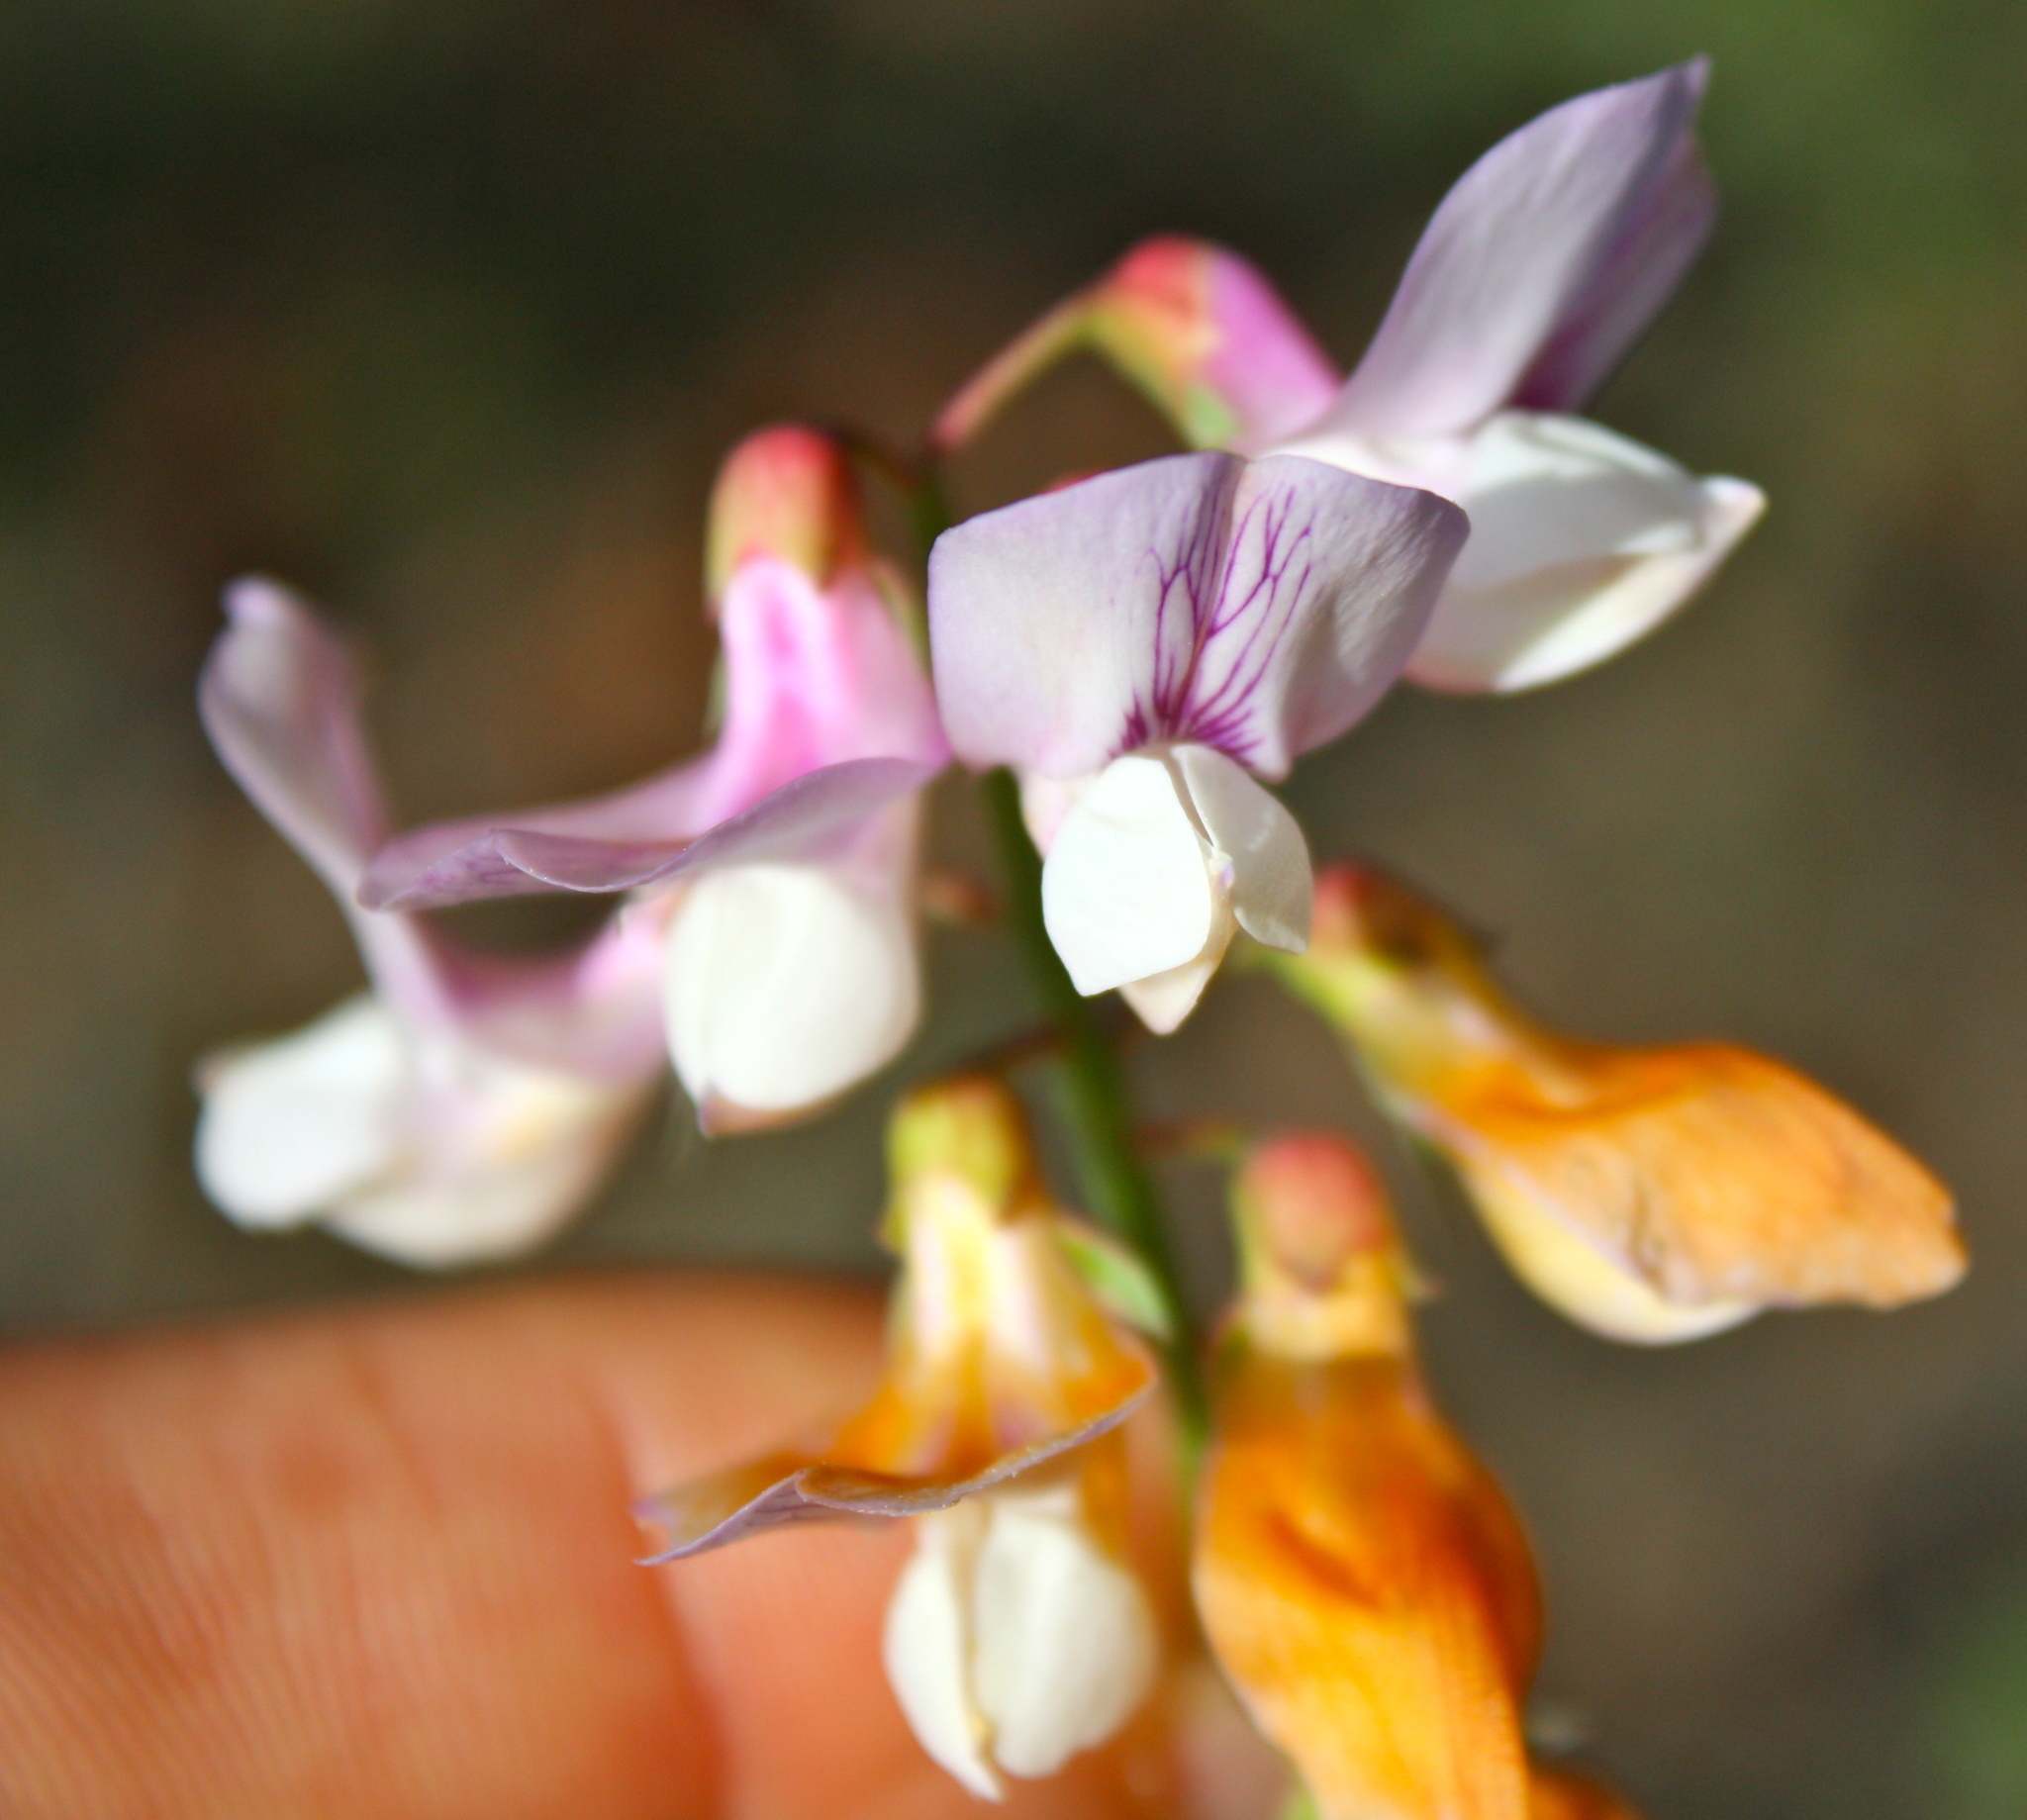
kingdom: Plantae
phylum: Tracheophyta
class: Magnoliopsida
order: Fabales
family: Fabaceae
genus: Lathyrus
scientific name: Lathyrus vestitus
